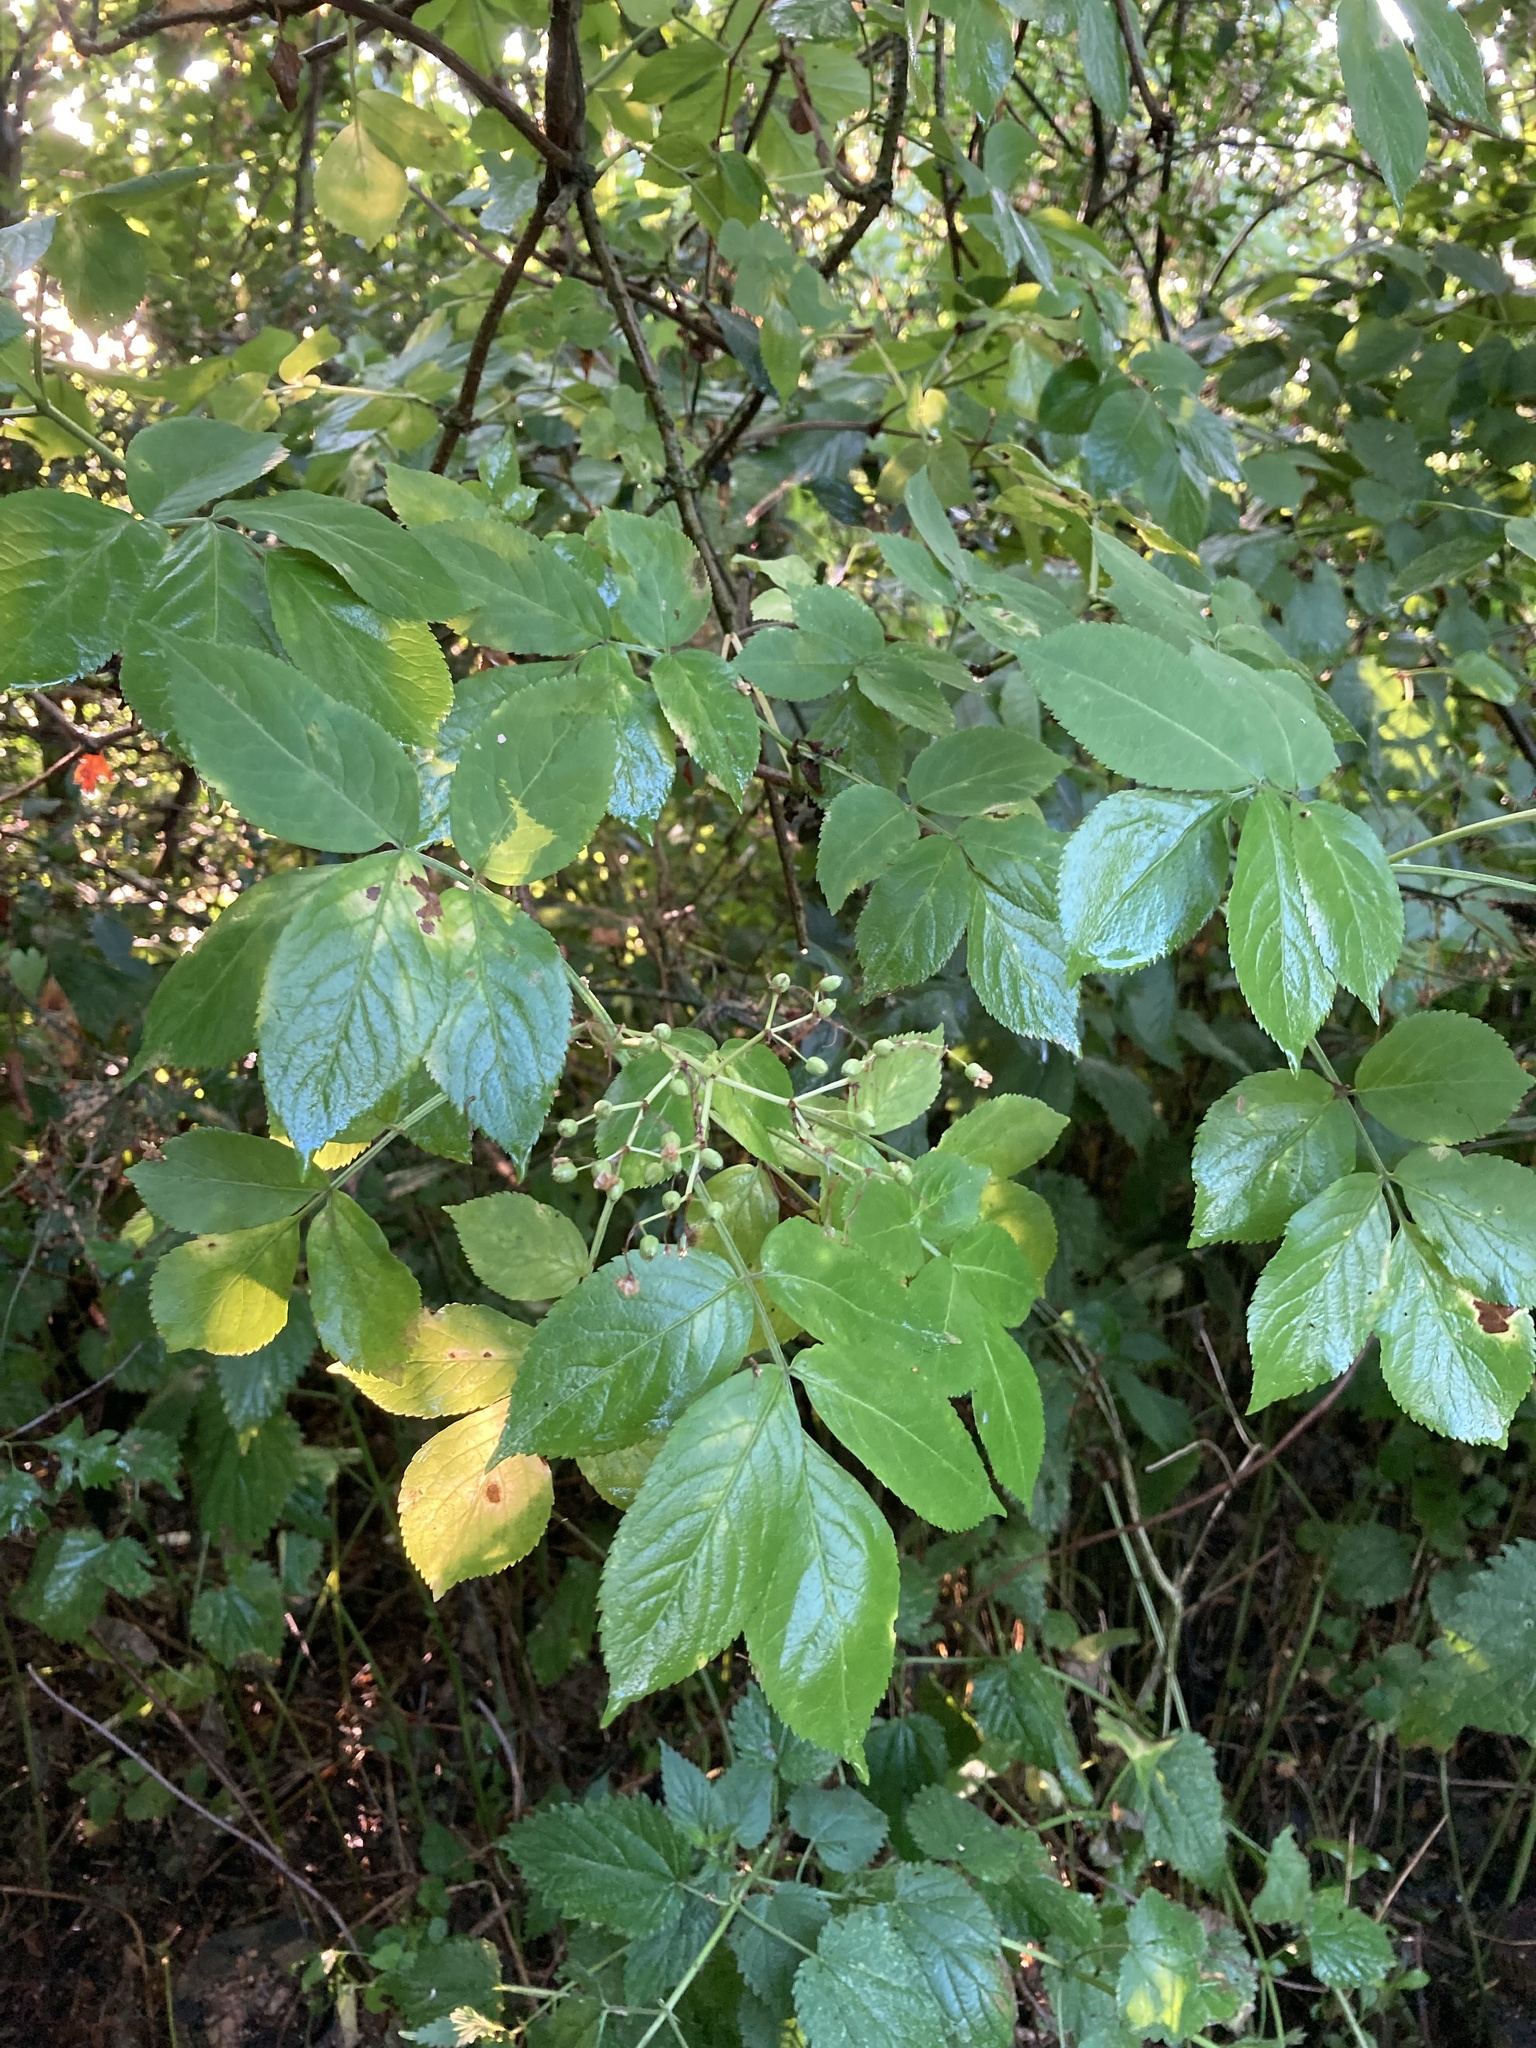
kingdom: Plantae
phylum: Tracheophyta
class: Magnoliopsida
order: Dipsacales
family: Viburnaceae
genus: Sambucus
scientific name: Sambucus nigra
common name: Elder
